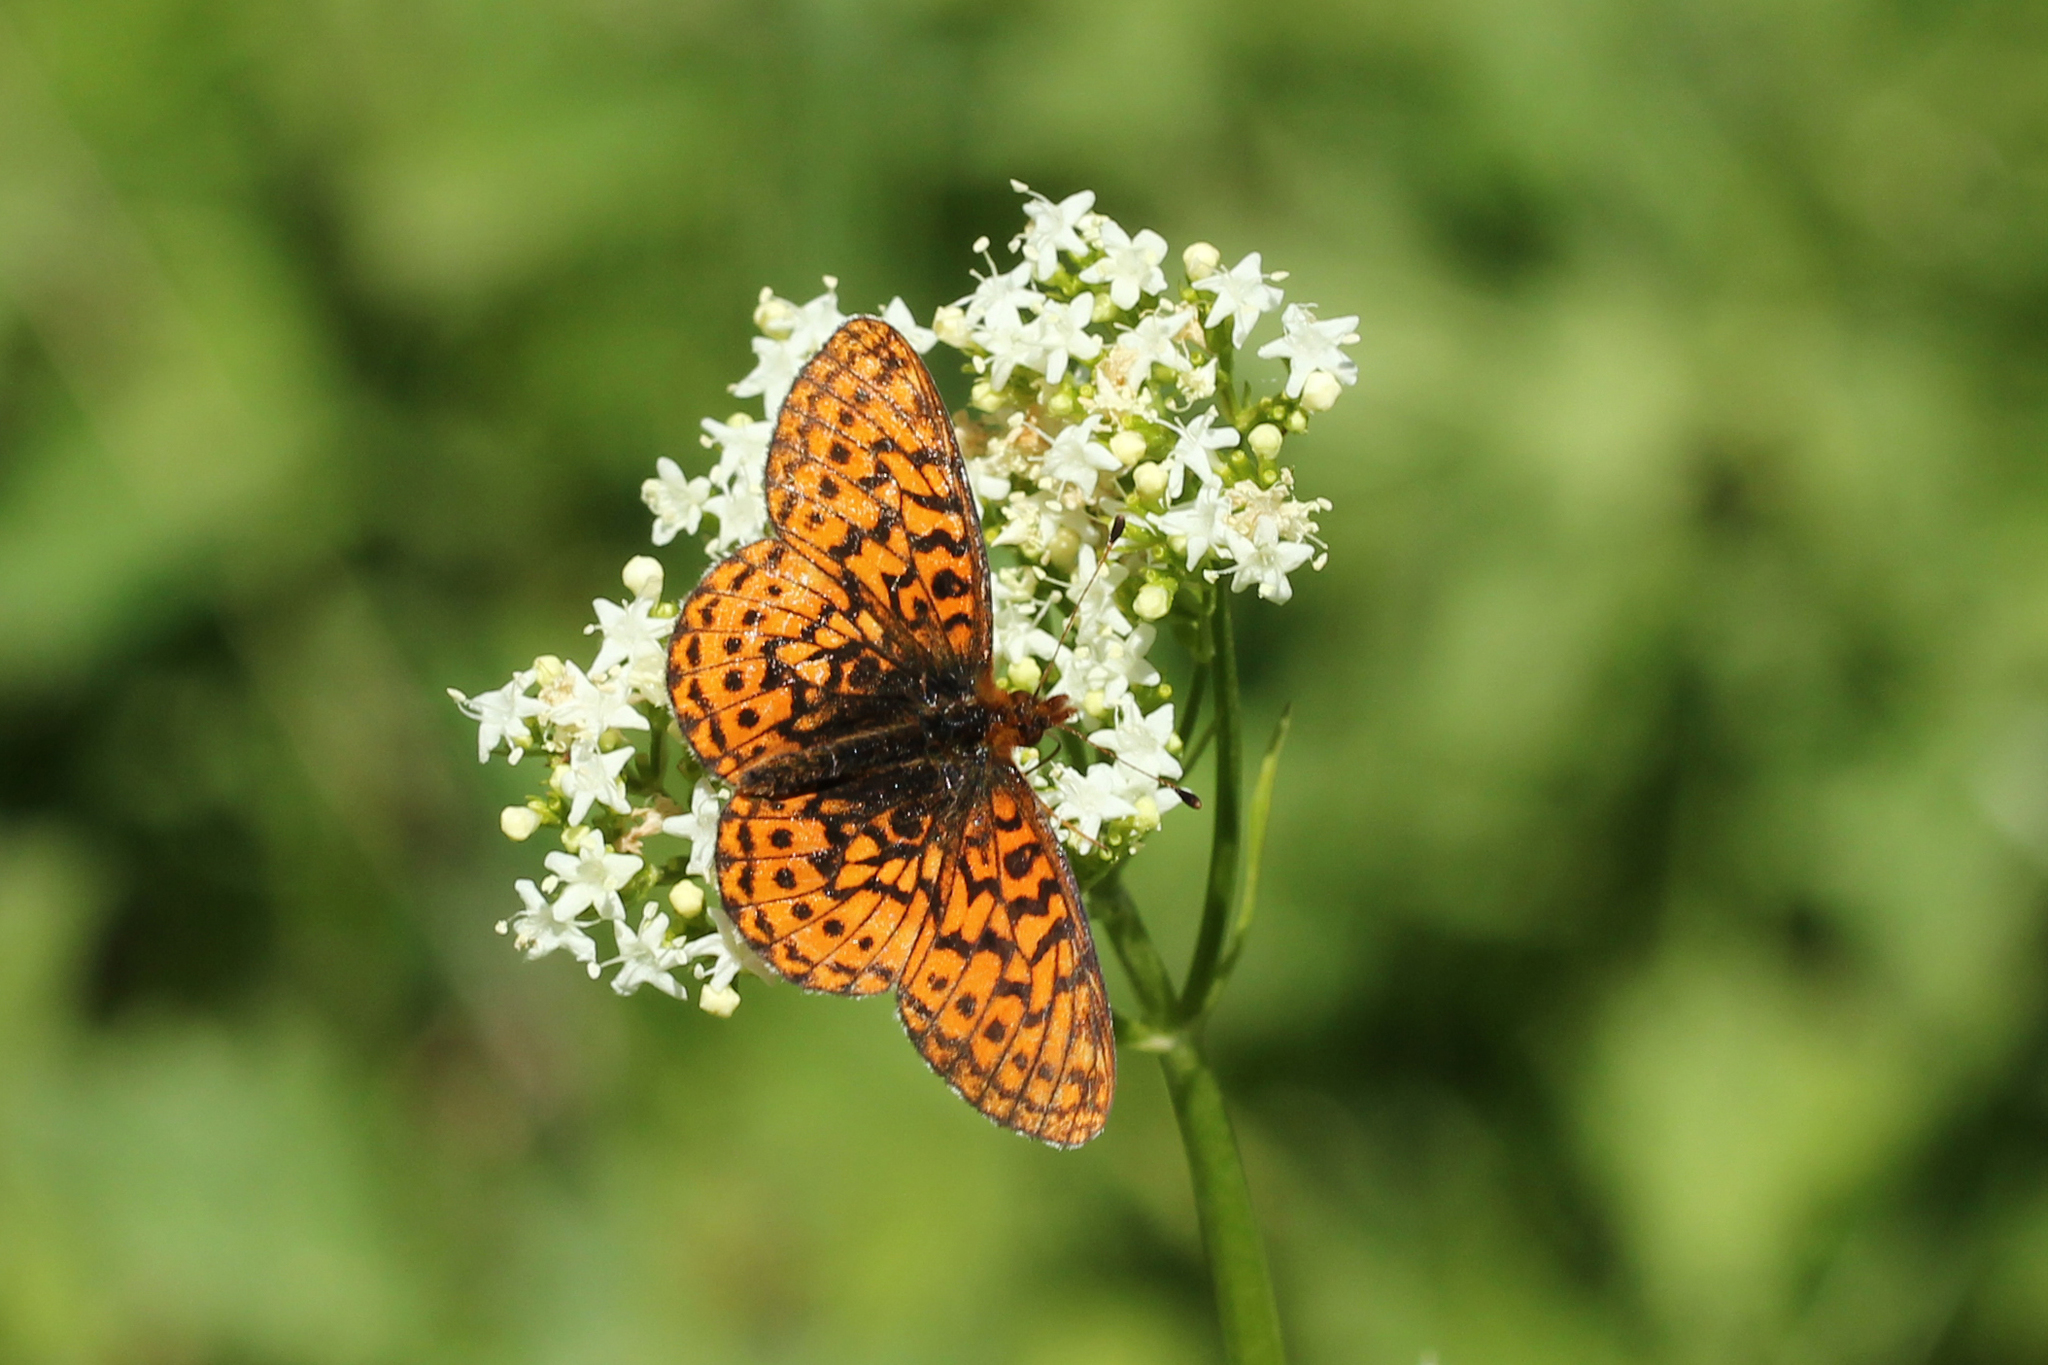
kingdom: Animalia
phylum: Arthropoda
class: Insecta
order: Lepidoptera
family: Nymphalidae
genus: Boloria
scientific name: Boloria kriemhild
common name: Relict fritillary
